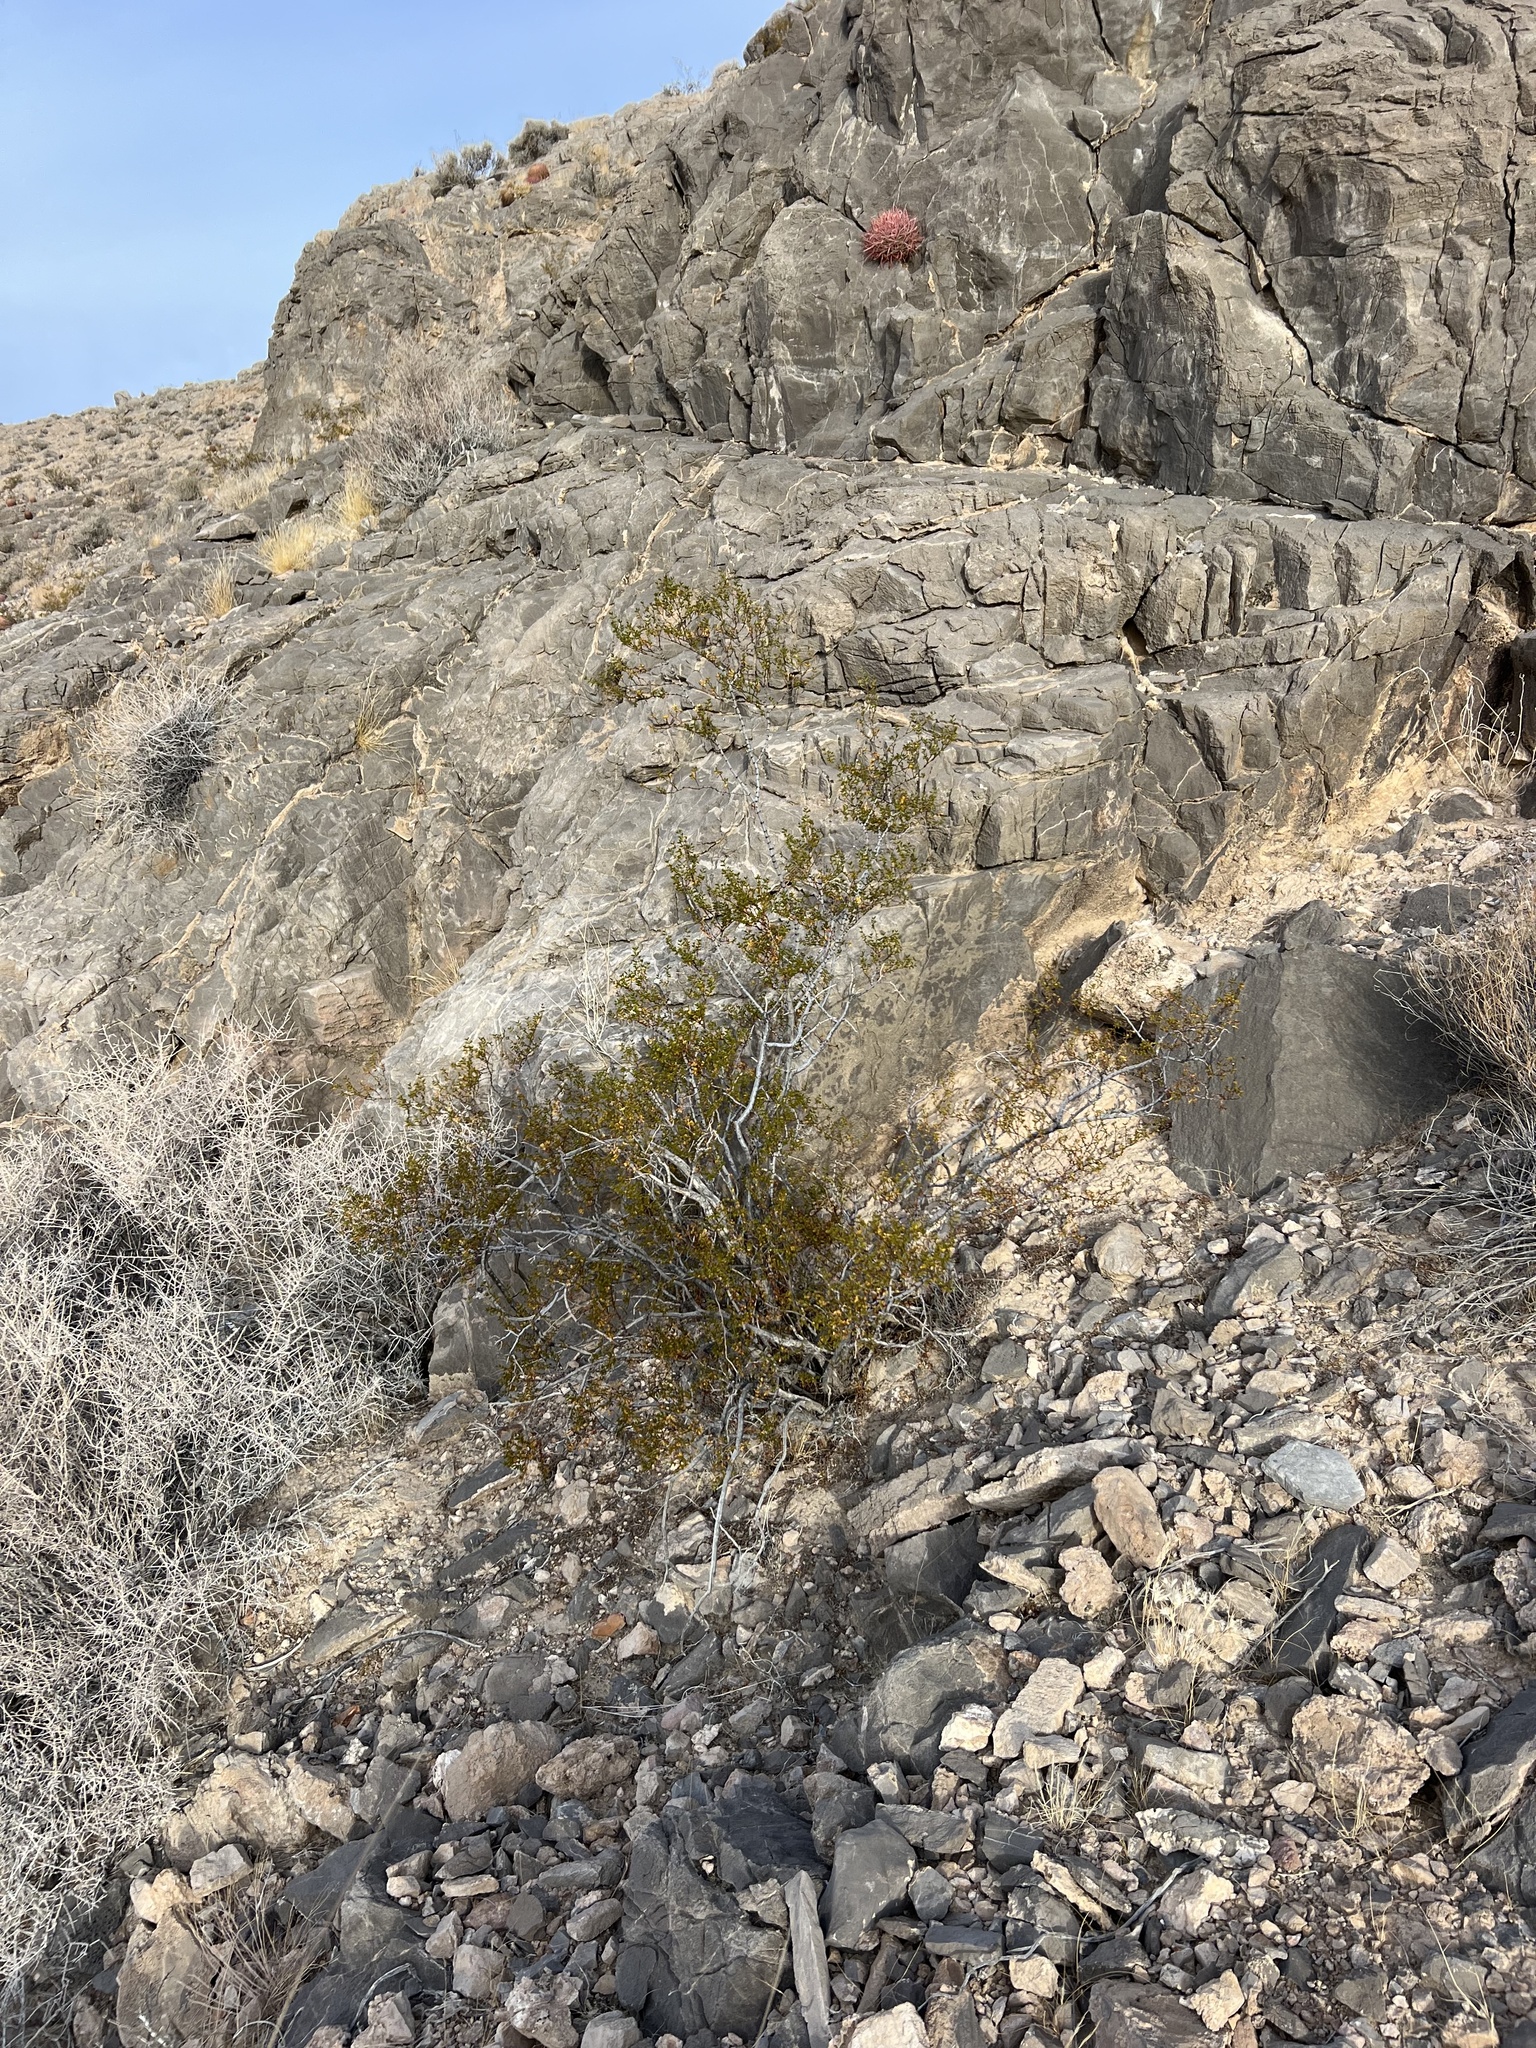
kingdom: Plantae
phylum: Tracheophyta
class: Magnoliopsida
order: Zygophyllales
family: Zygophyllaceae
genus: Larrea
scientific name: Larrea tridentata
